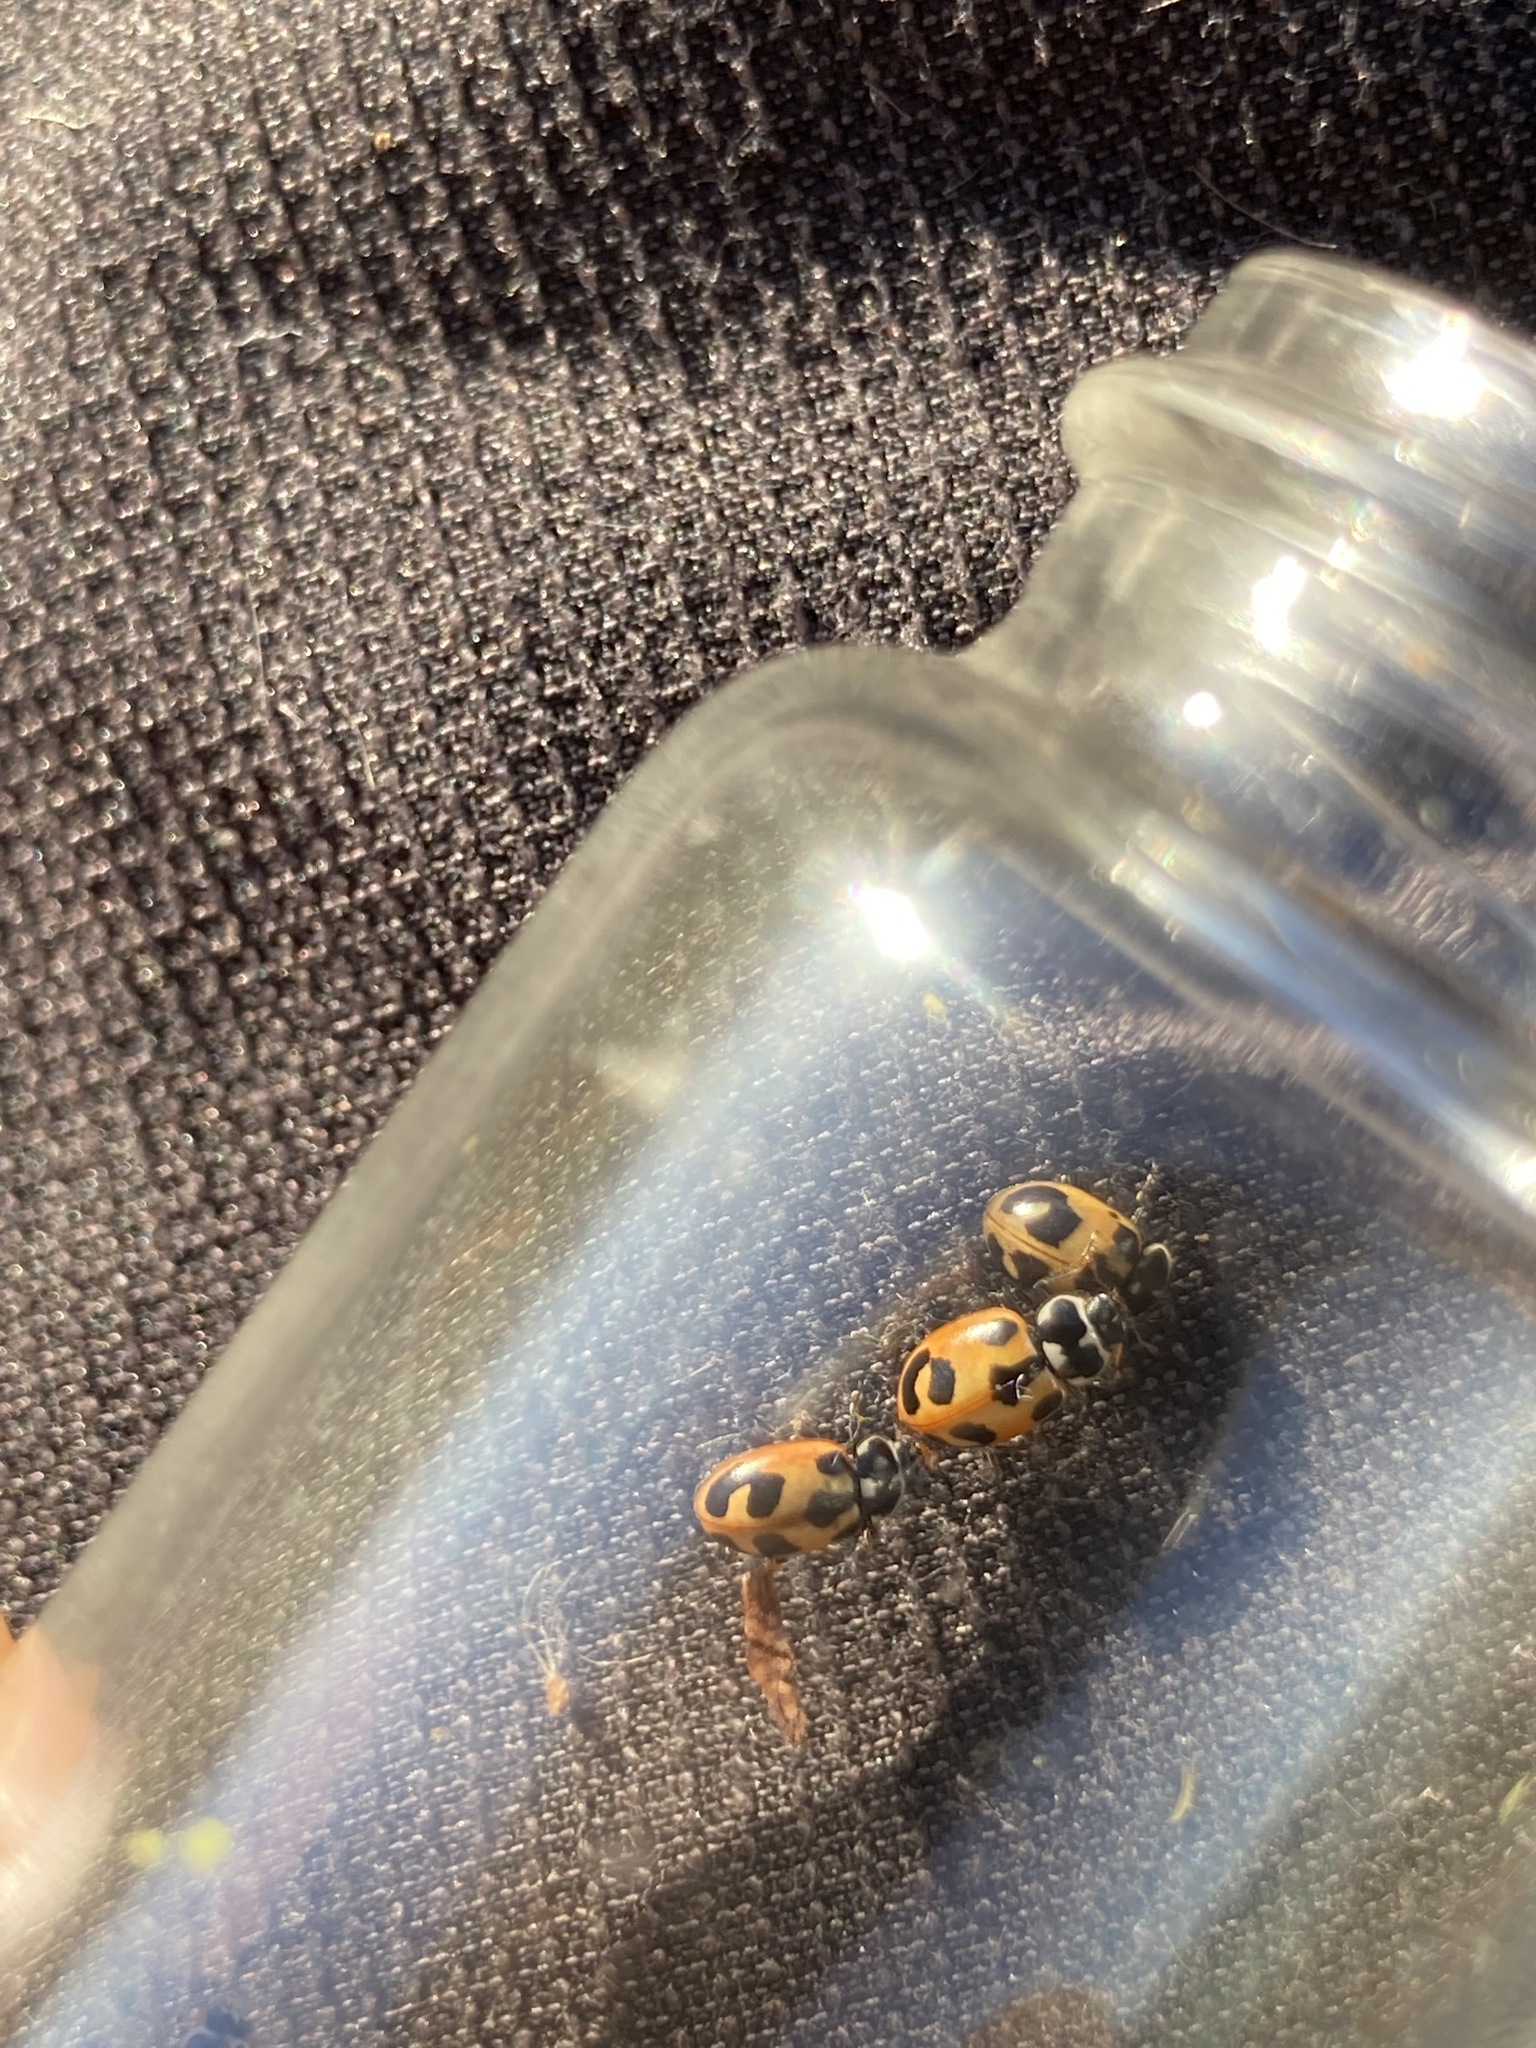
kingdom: Animalia
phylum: Arthropoda
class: Insecta
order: Coleoptera
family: Coccinellidae
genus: Hippodamia
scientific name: Hippodamia parenthesis
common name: Parenthesis lady beetle
